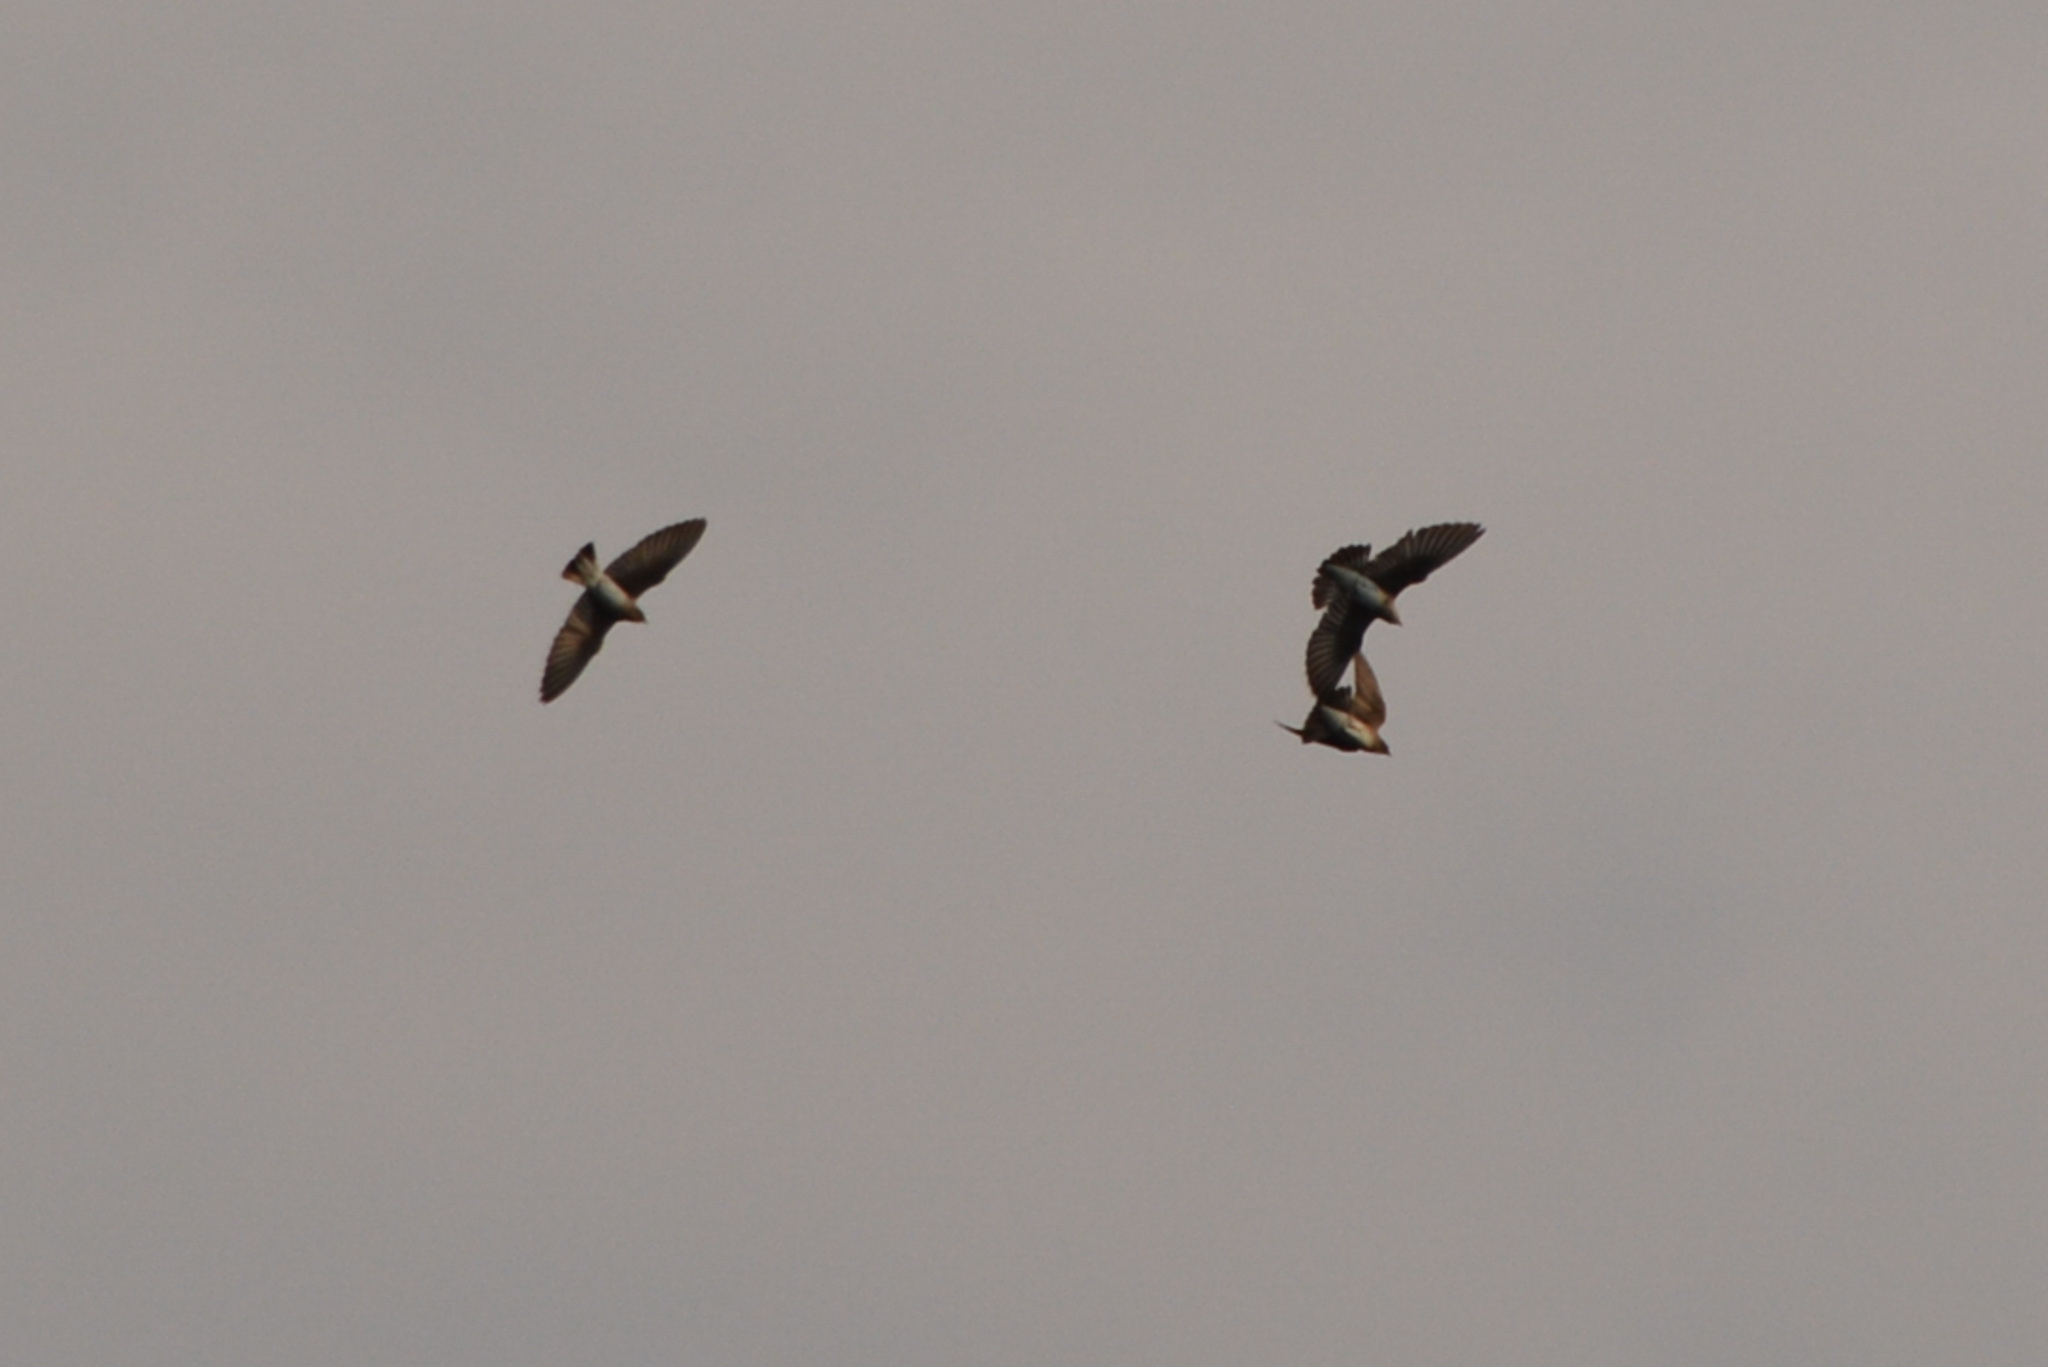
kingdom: Animalia
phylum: Chordata
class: Aves
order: Passeriformes
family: Hirundinidae
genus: Stelgidopteryx
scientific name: Stelgidopteryx serripennis
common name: Northern rough-winged swallow
